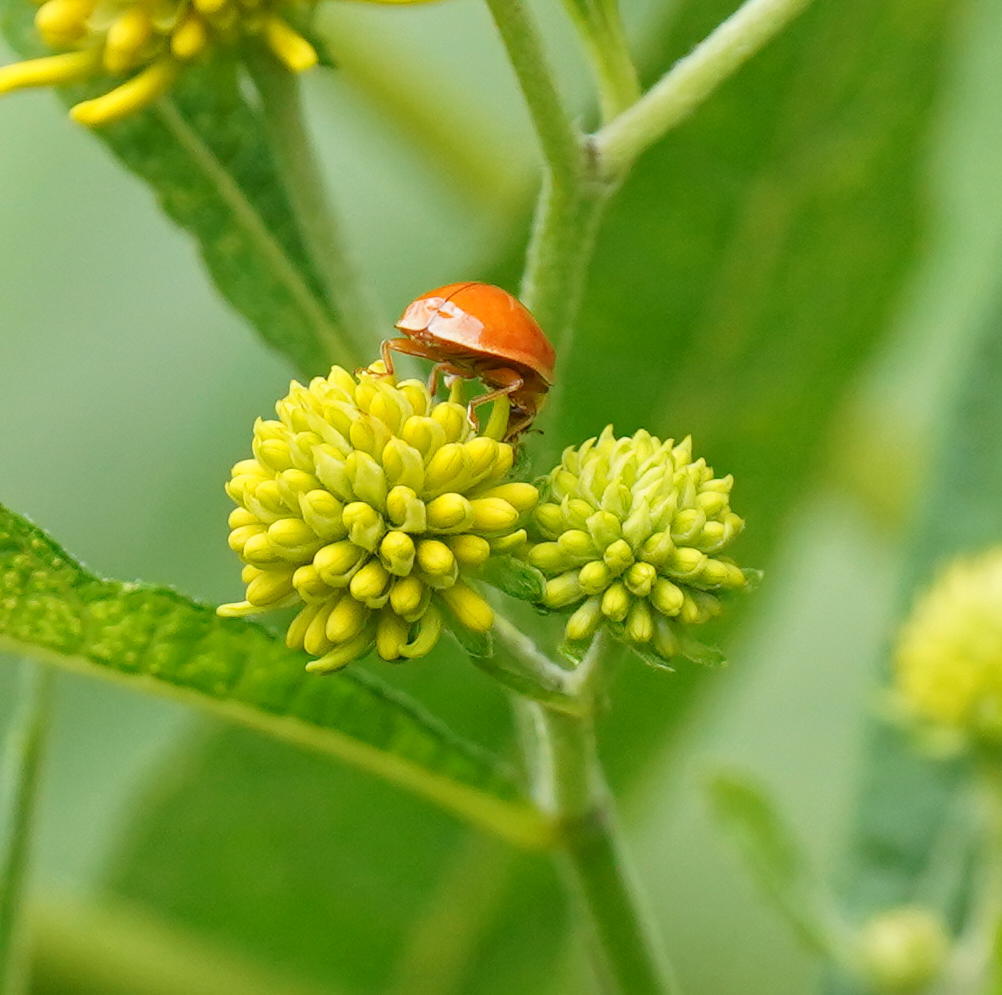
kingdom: Animalia
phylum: Arthropoda
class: Insecta
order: Coleoptera
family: Coccinellidae
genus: Harmonia
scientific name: Harmonia axyridis
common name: Harlequin ladybird
